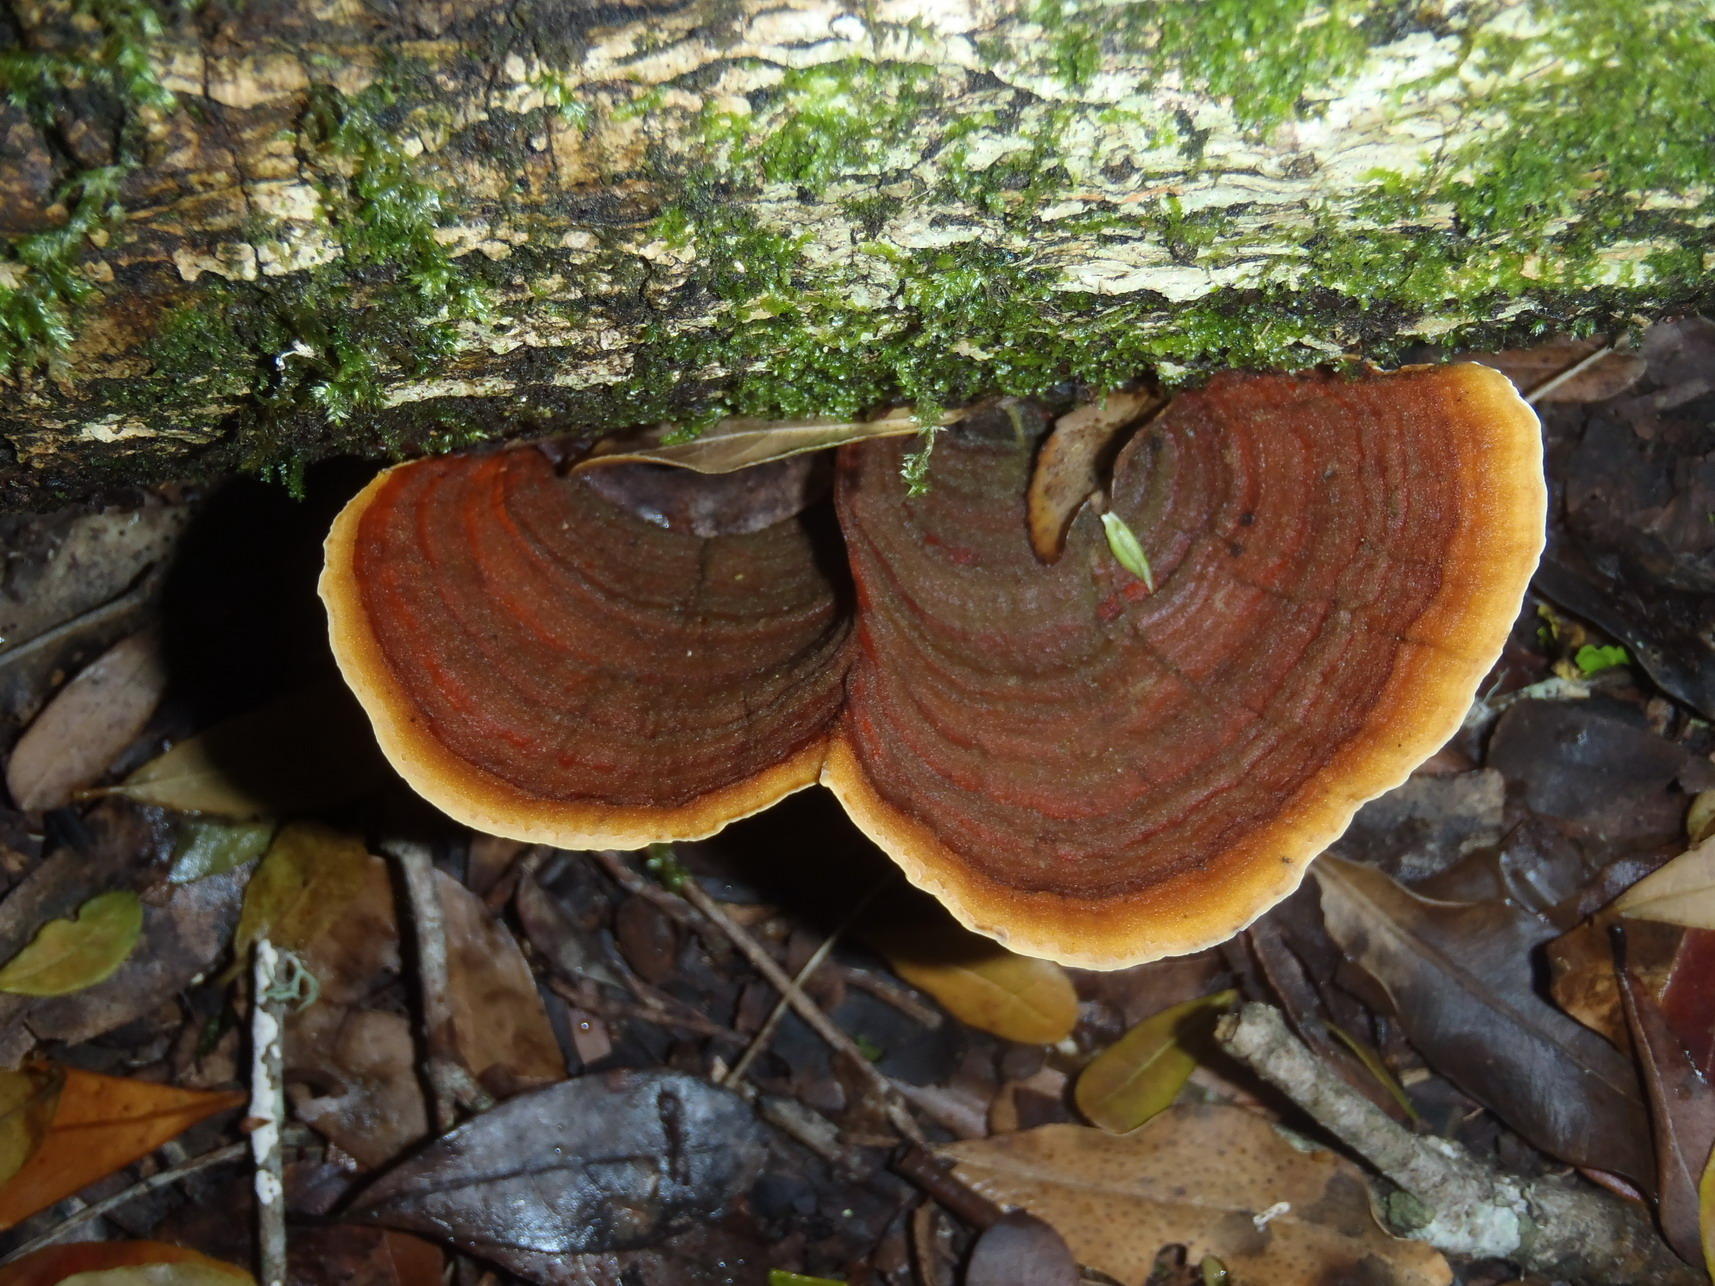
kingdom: Fungi
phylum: Basidiomycota
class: Agaricomycetes
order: Russulales
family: Stereaceae
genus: Stereum
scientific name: Stereum ostrea
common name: False turkeytail
